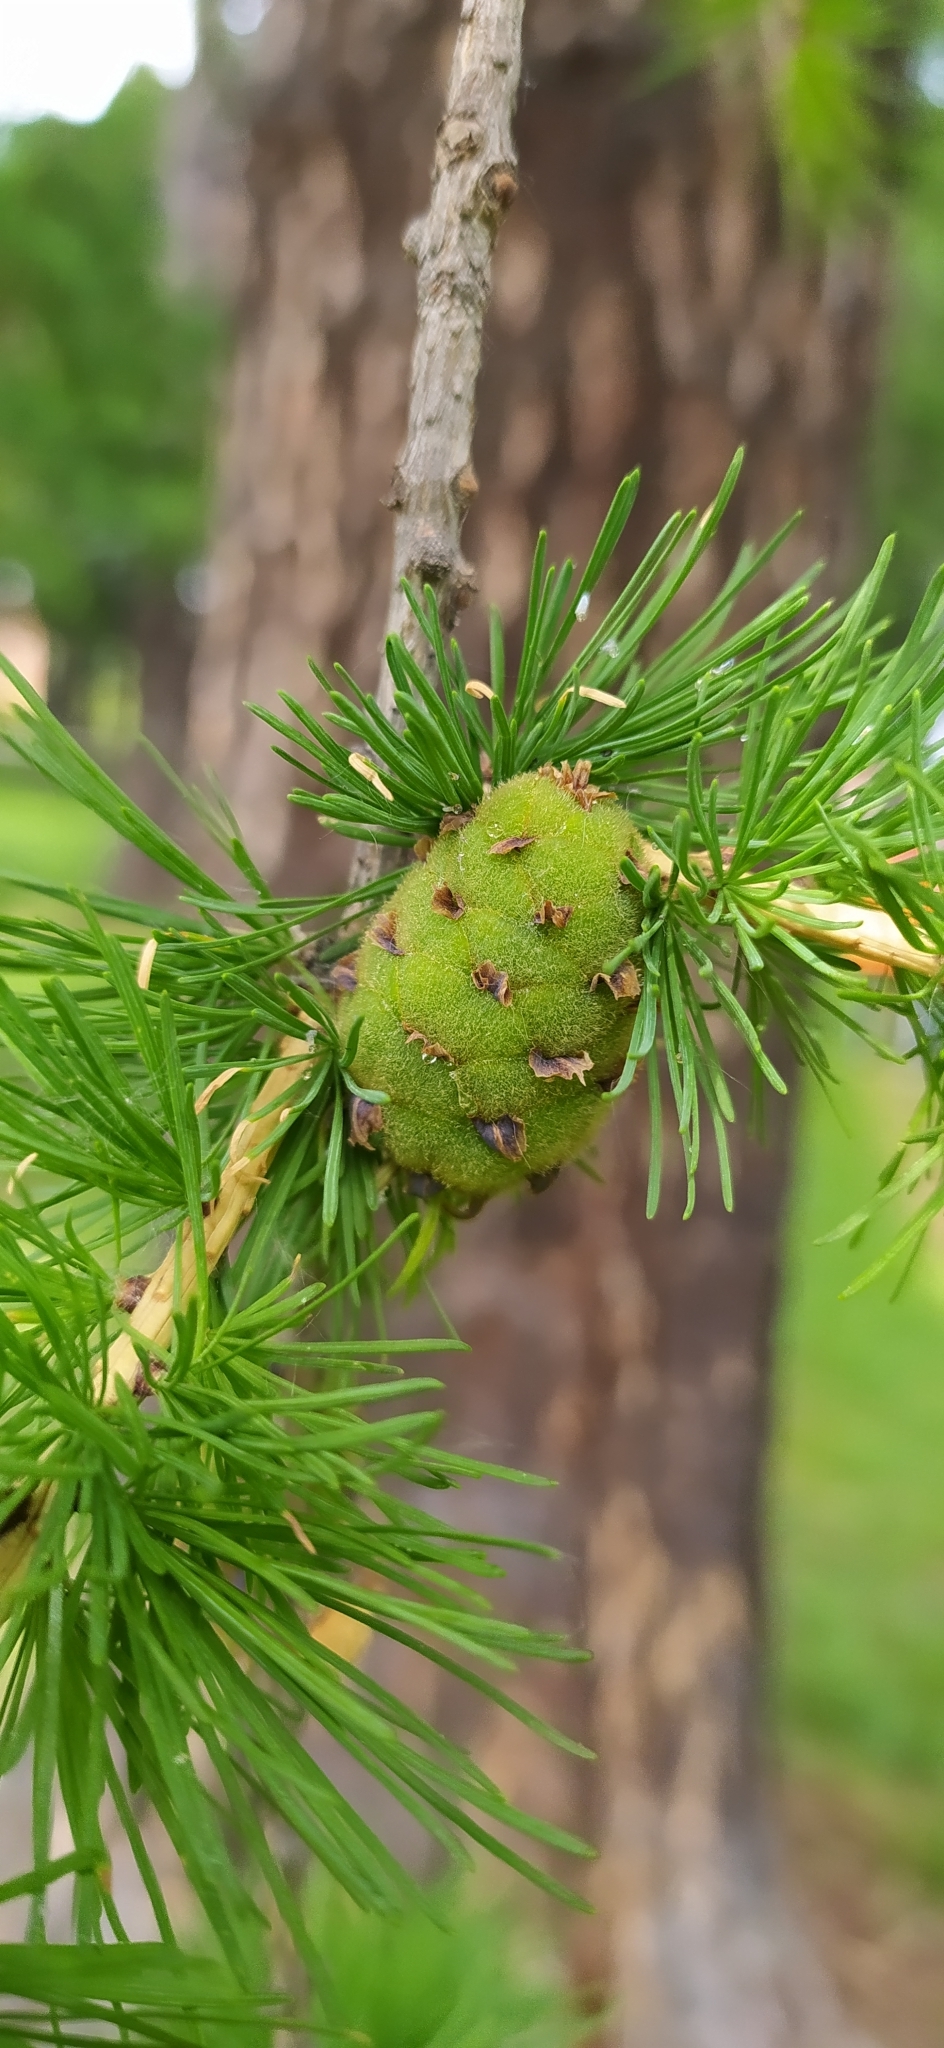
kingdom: Plantae
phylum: Tracheophyta
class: Pinopsida
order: Pinales
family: Pinaceae
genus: Larix
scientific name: Larix sibirica
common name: Siberian larch
